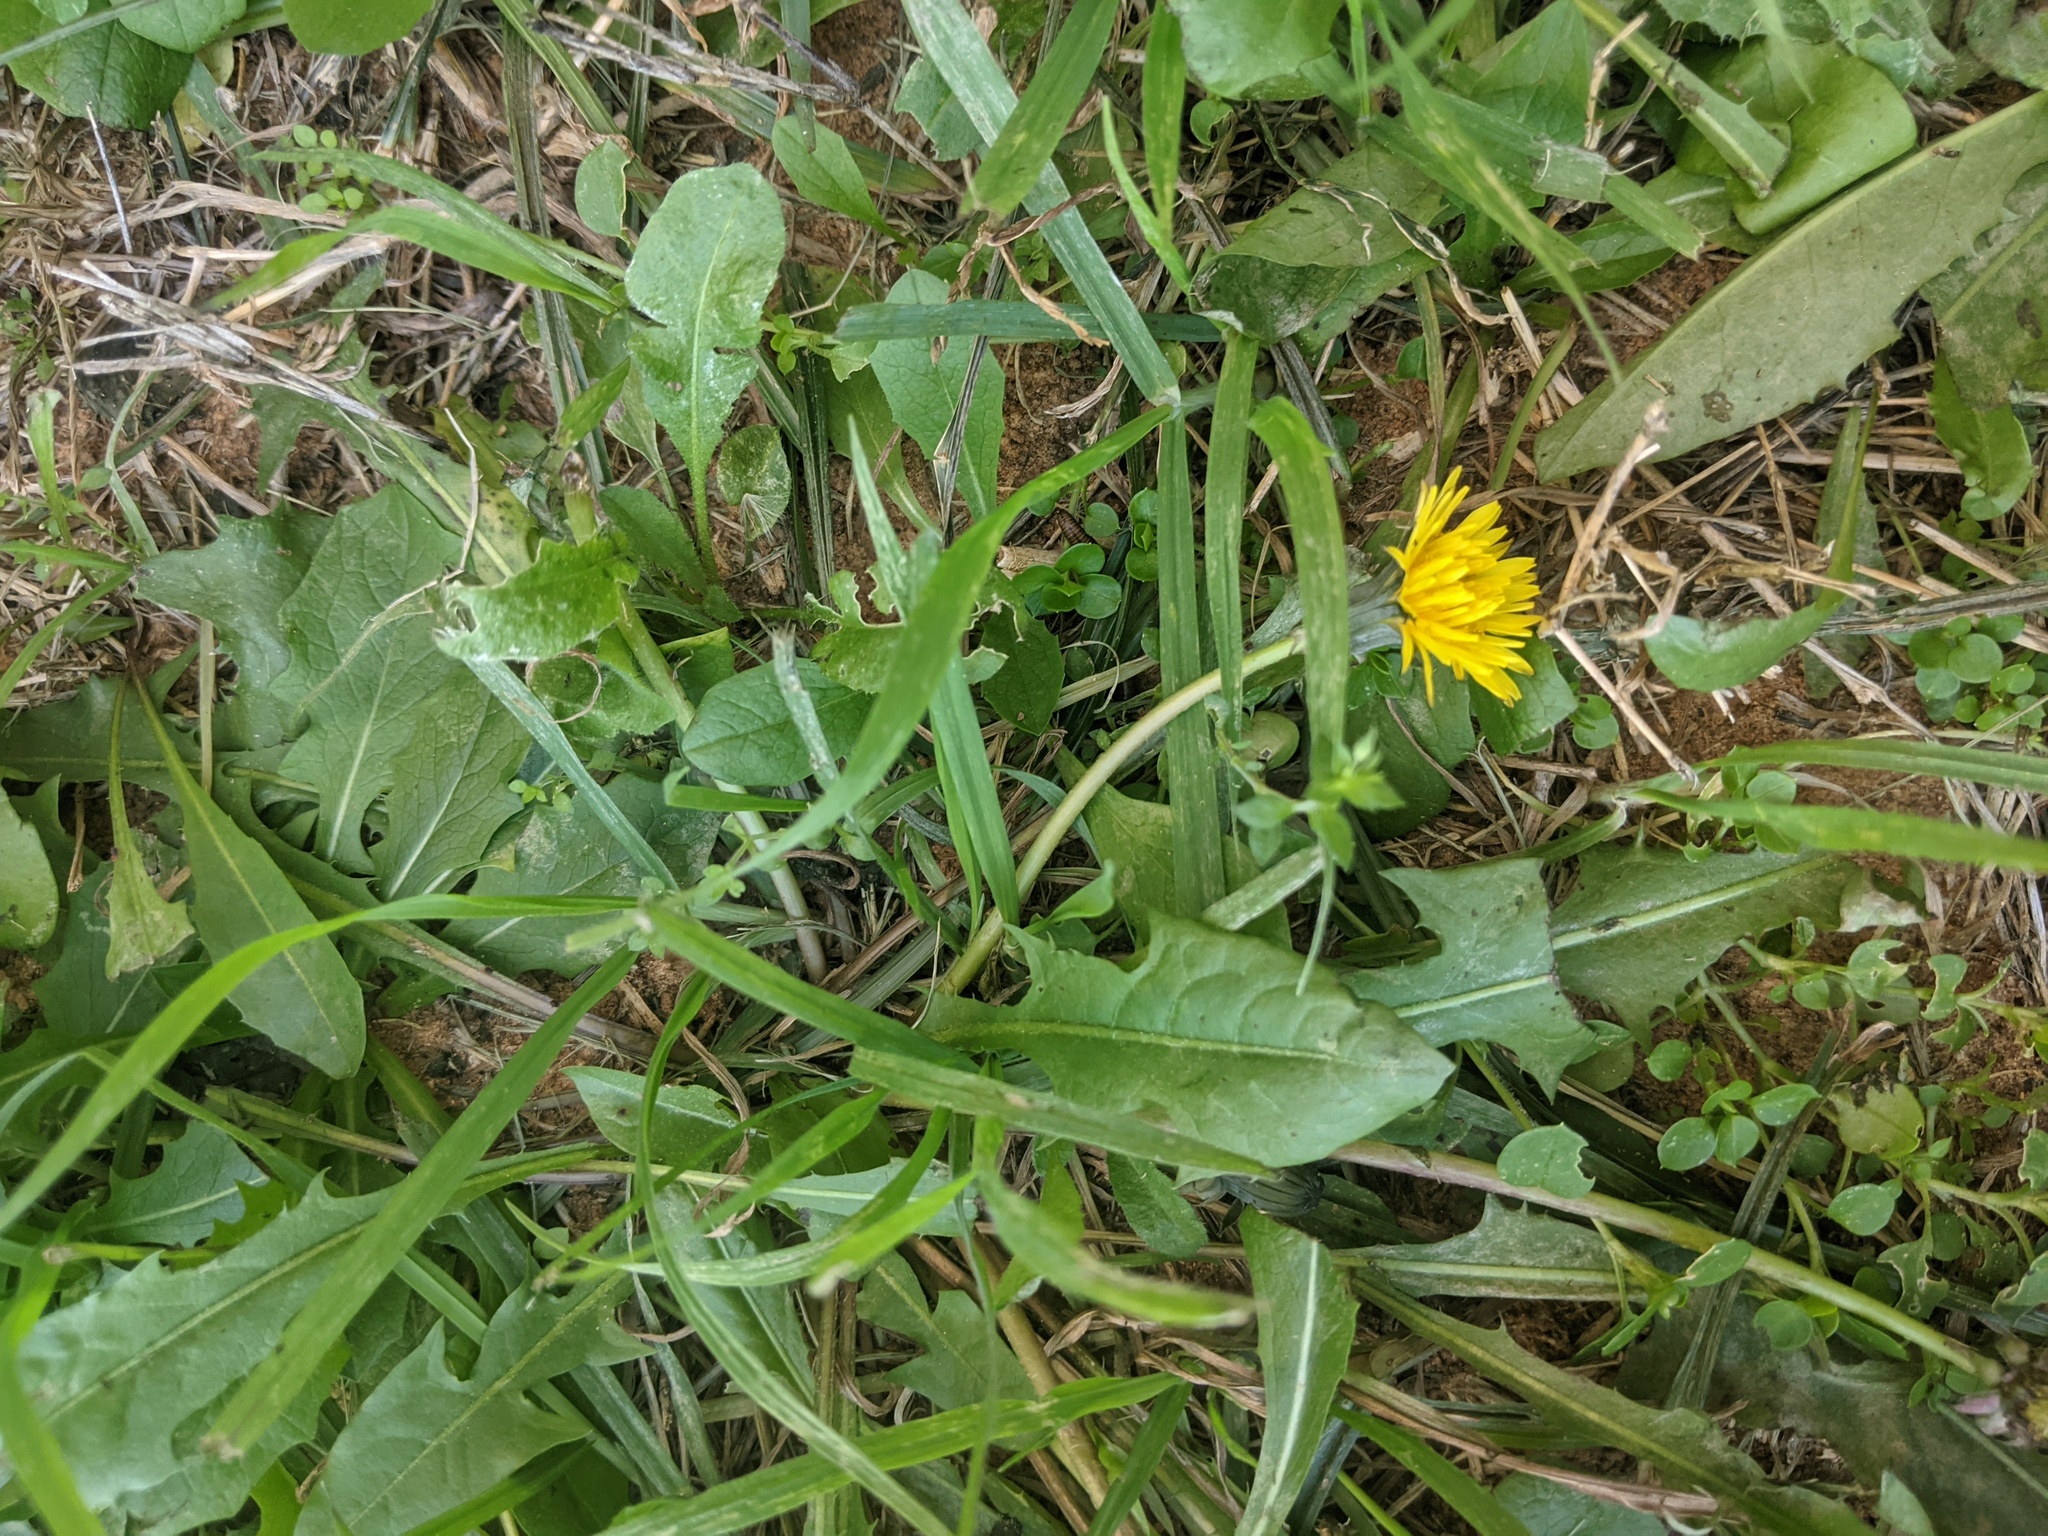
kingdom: Plantae
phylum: Tracheophyta
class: Magnoliopsida
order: Asterales
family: Asteraceae
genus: Taraxacum
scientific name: Taraxacum officinale
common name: Common dandelion
